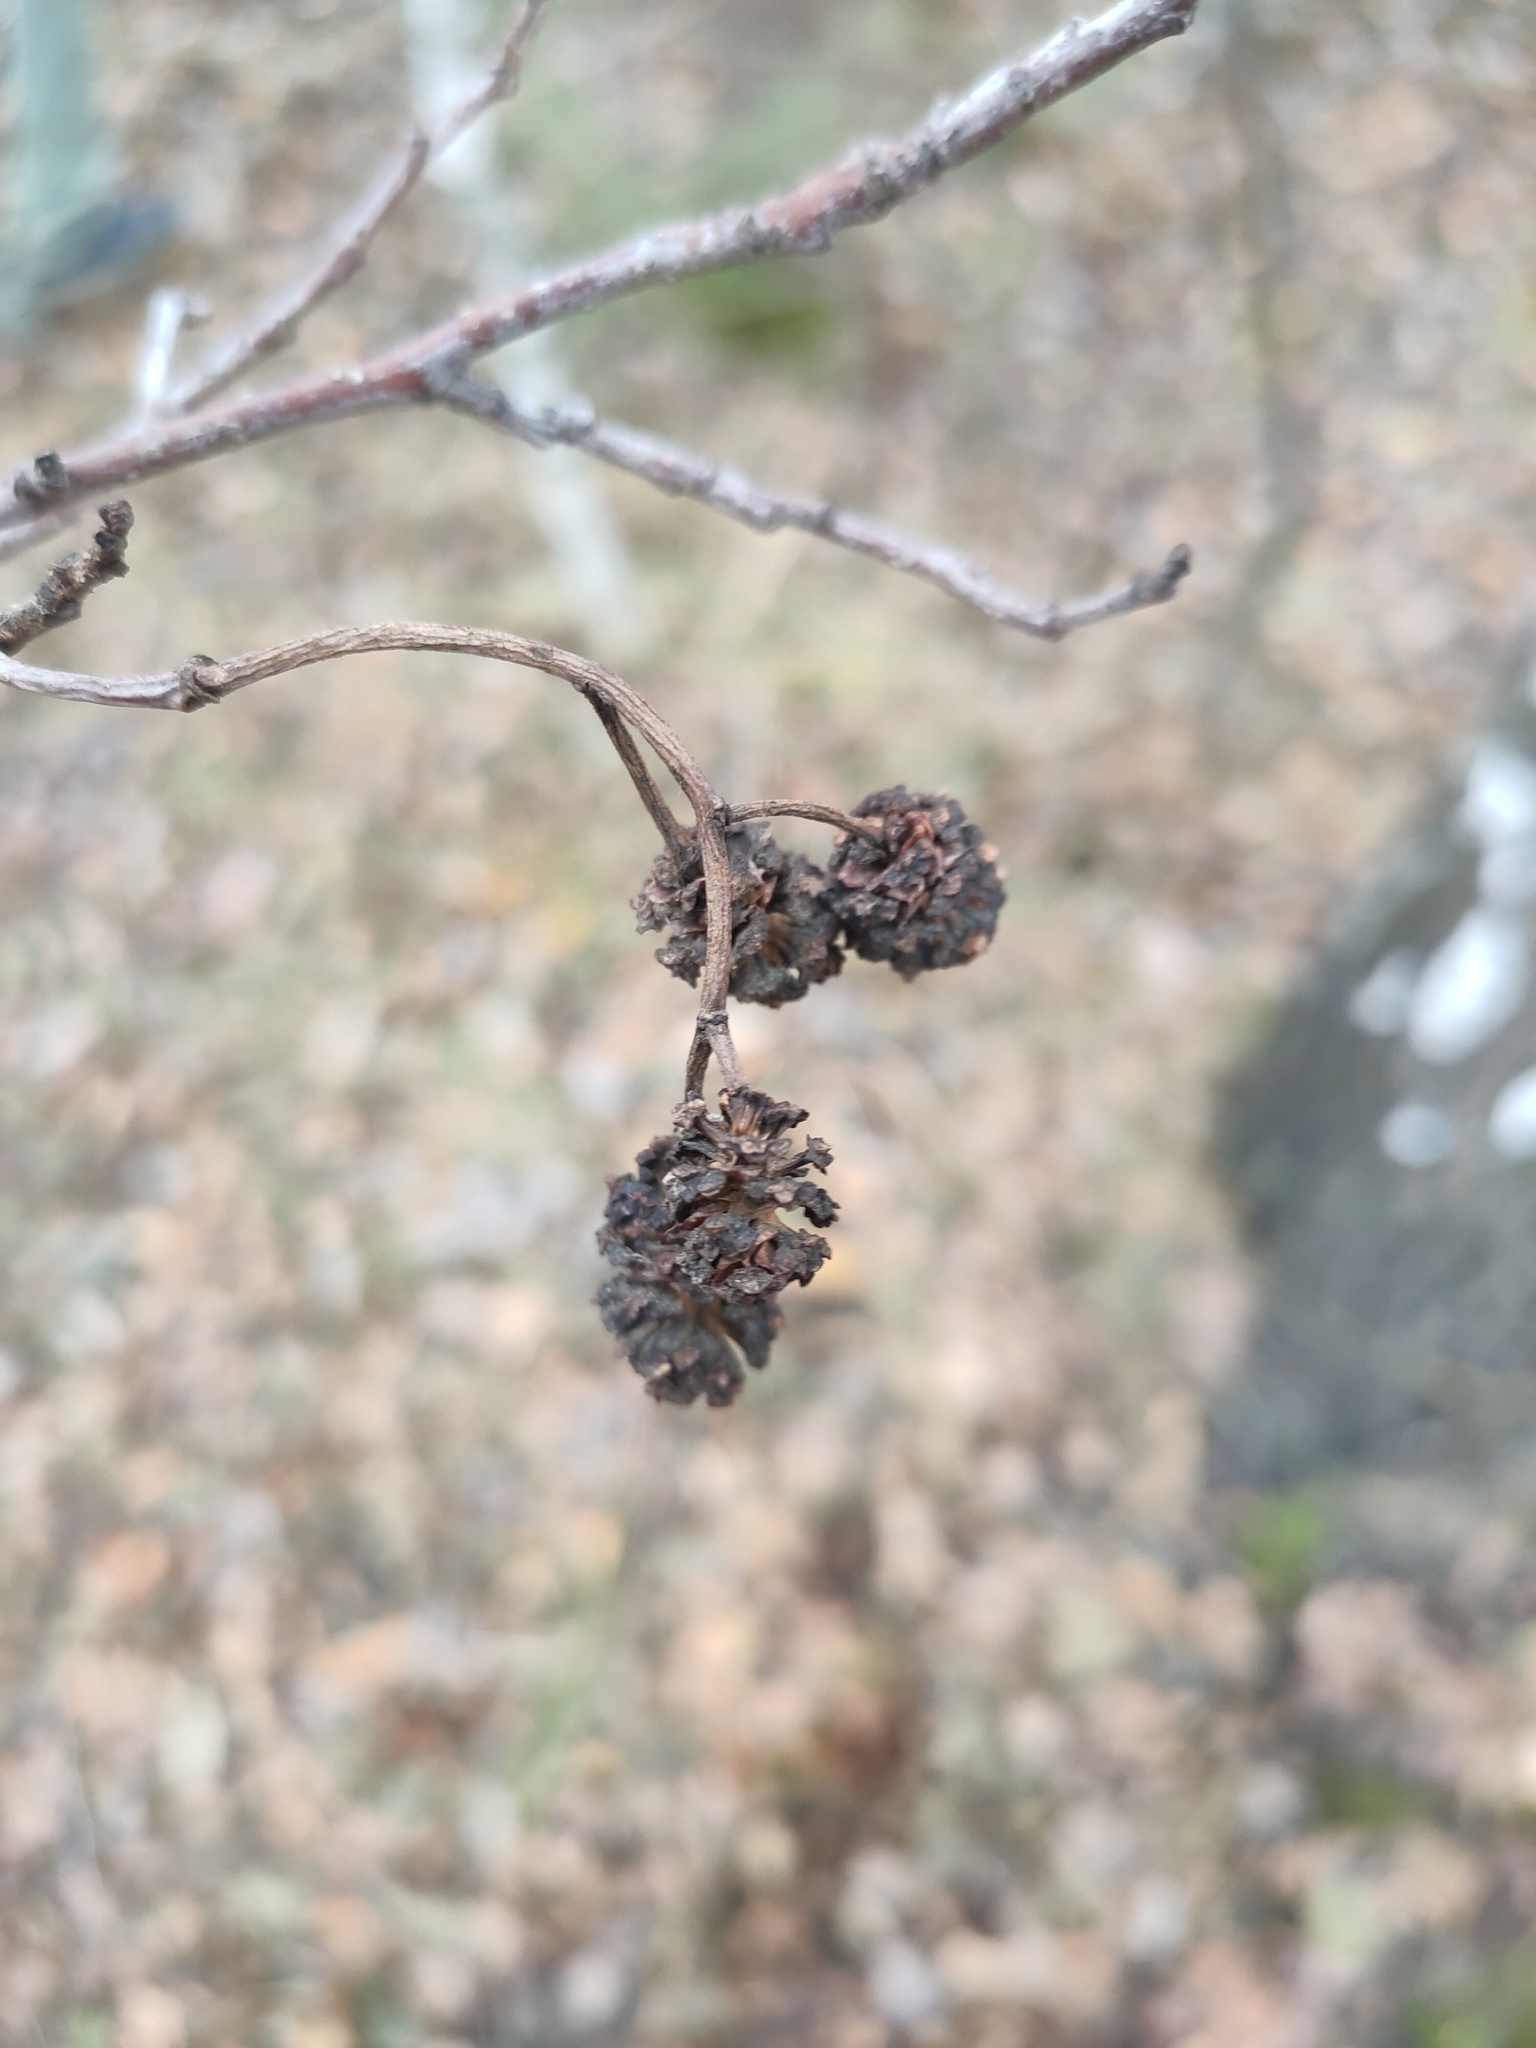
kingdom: Plantae
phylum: Tracheophyta
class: Magnoliopsida
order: Fagales
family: Betulaceae
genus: Alnus
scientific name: Alnus glutinosa
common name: Black alder
